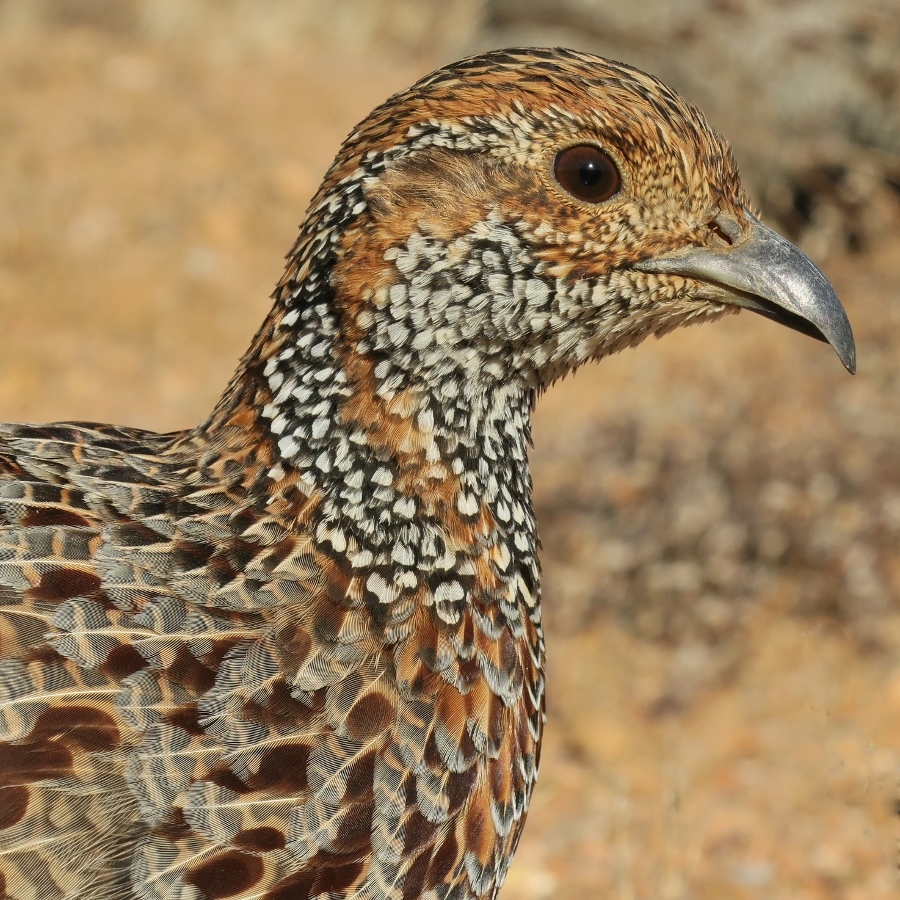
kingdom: Animalia
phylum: Chordata
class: Aves
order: Galliformes
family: Phasianidae
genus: Scleroptila
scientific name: Scleroptila afra
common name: Grey-winged francolin
